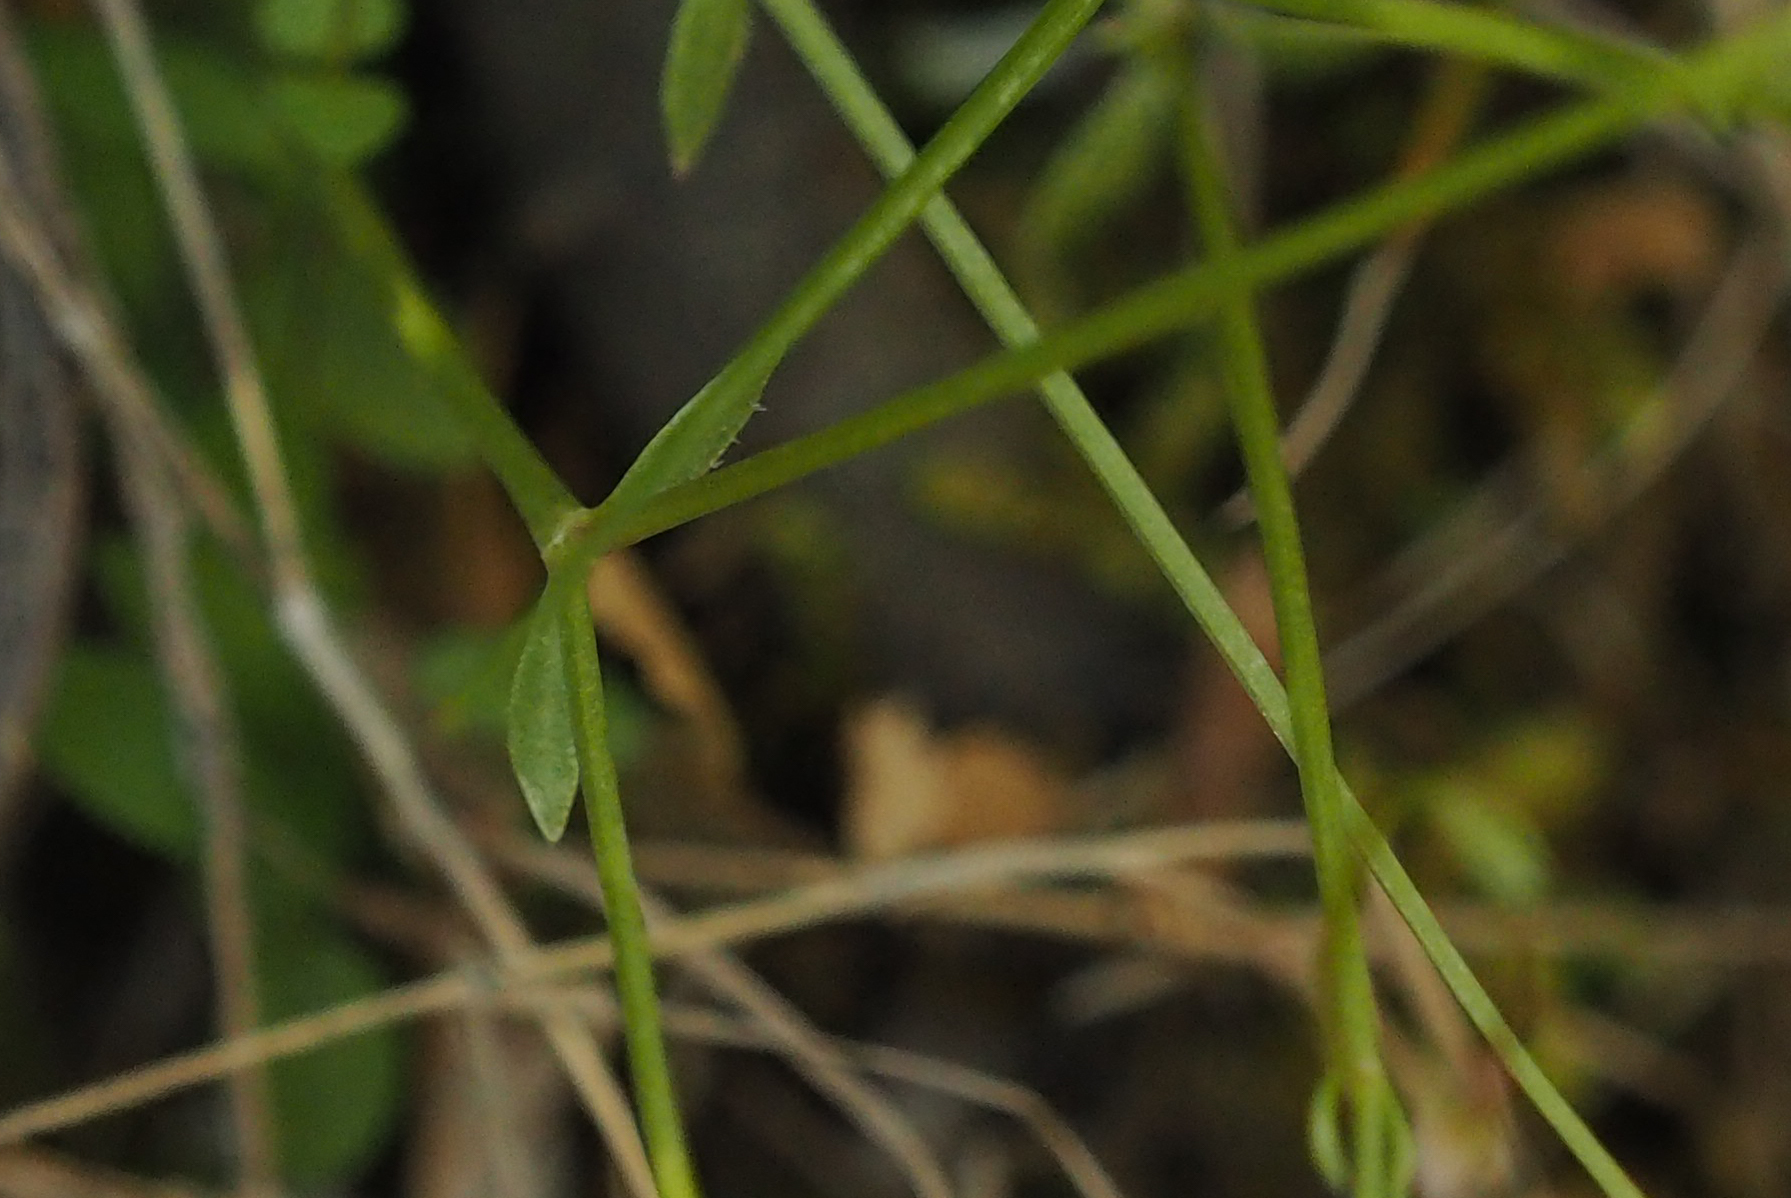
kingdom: Plantae
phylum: Tracheophyta
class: Magnoliopsida
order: Gentianales
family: Rubiaceae
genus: Houstonia
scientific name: Houstonia caerulea
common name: Bluets
